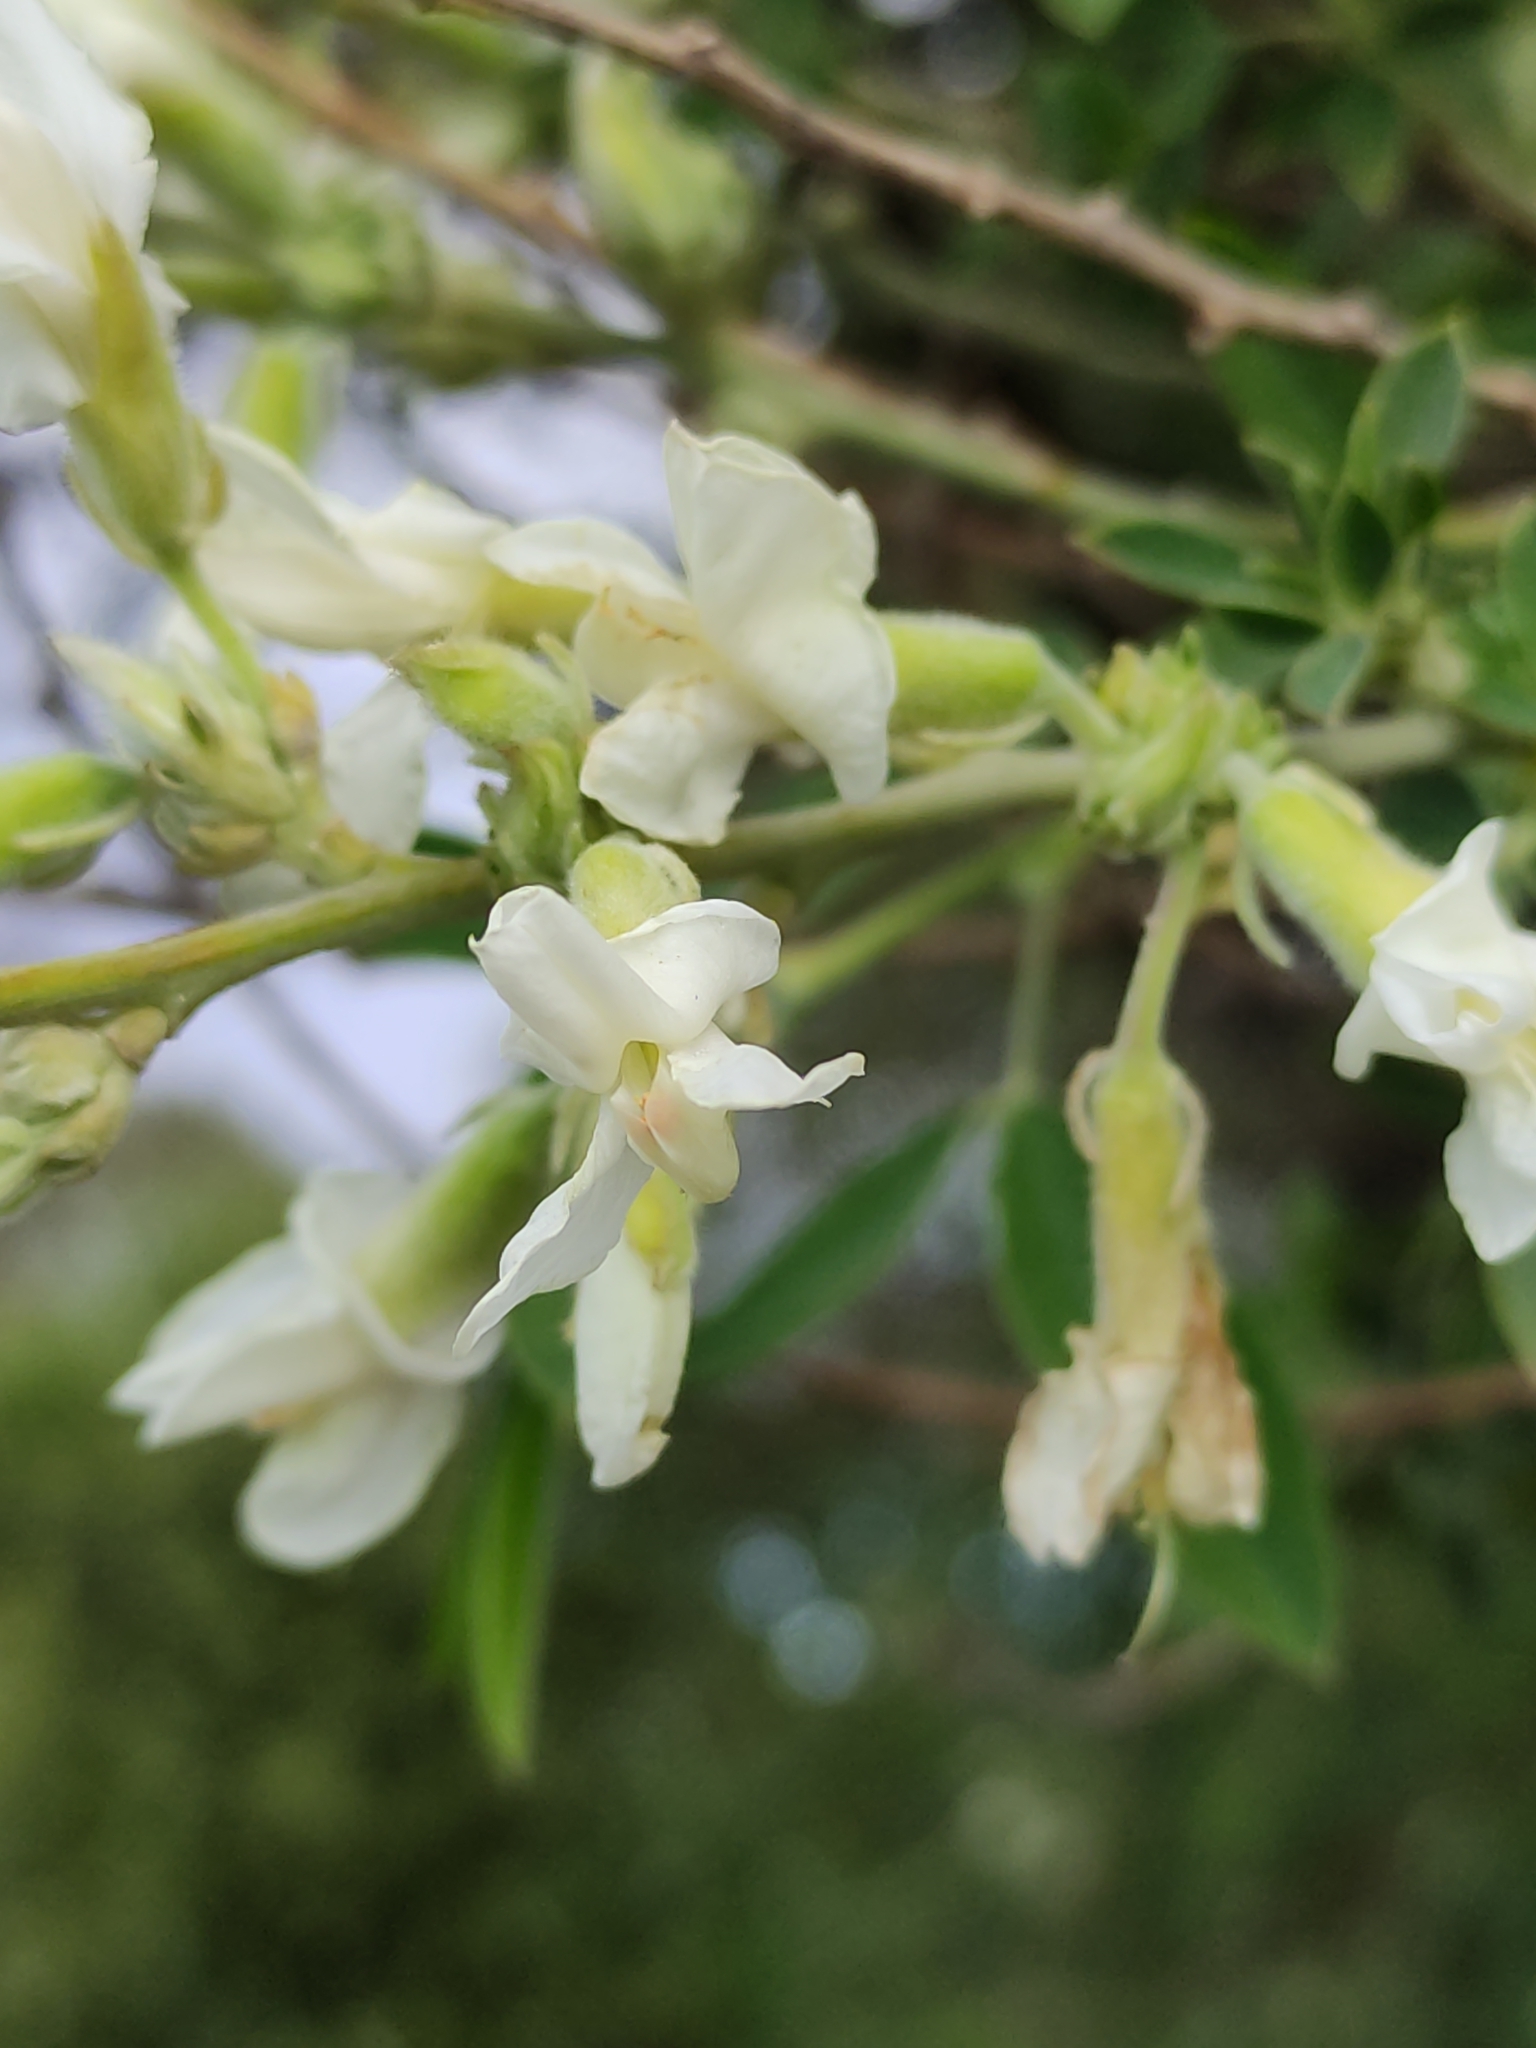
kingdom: Plantae
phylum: Tracheophyta
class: Magnoliopsida
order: Fabales
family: Fabaceae
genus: Chamaecytisus
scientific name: Chamaecytisus prolifer
